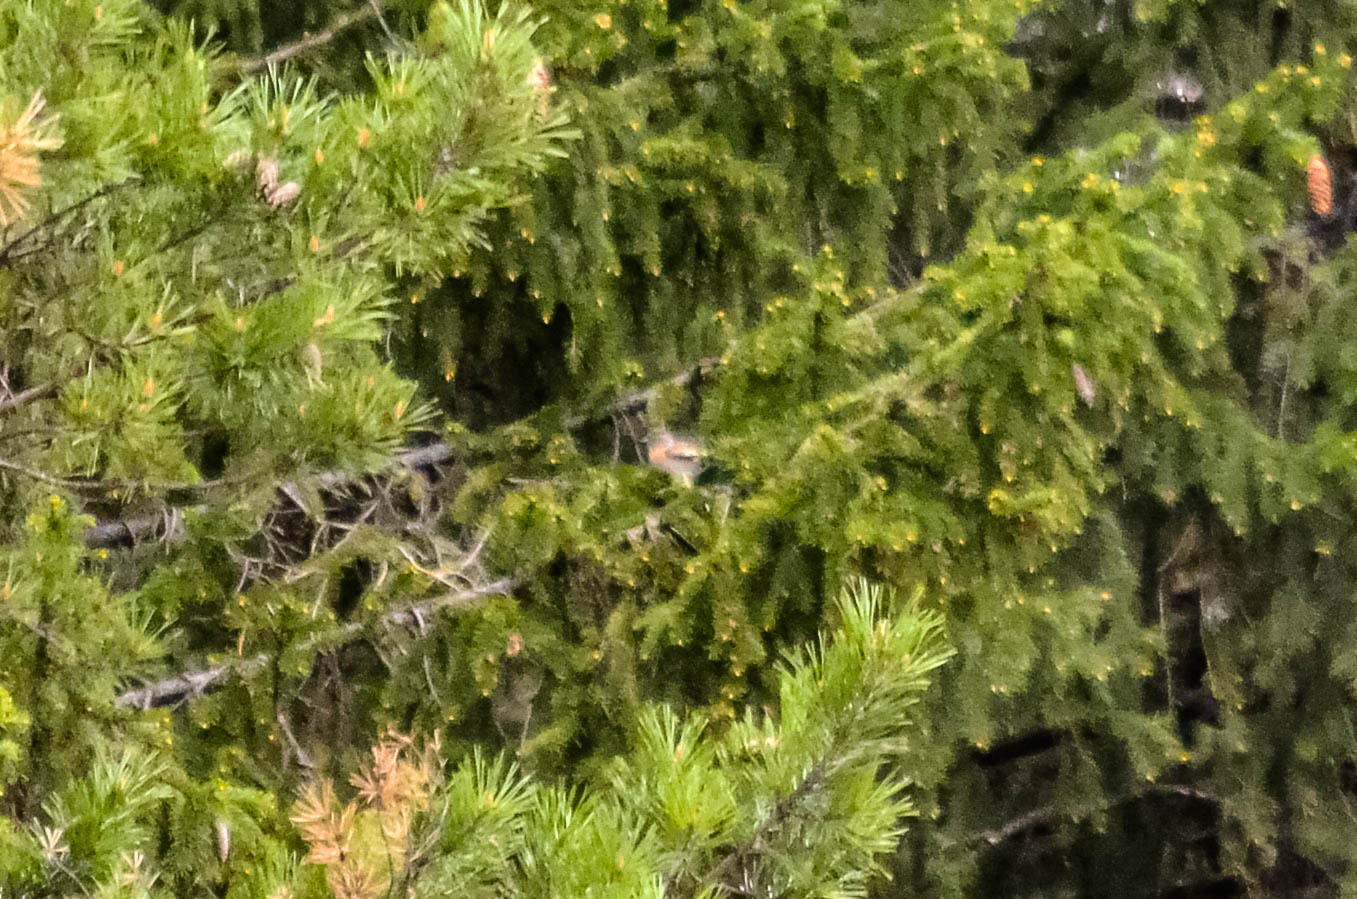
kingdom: Animalia
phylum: Chordata
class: Aves
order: Passeriformes
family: Fringillidae
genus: Fringilla
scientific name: Fringilla montifringilla
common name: Brambling
